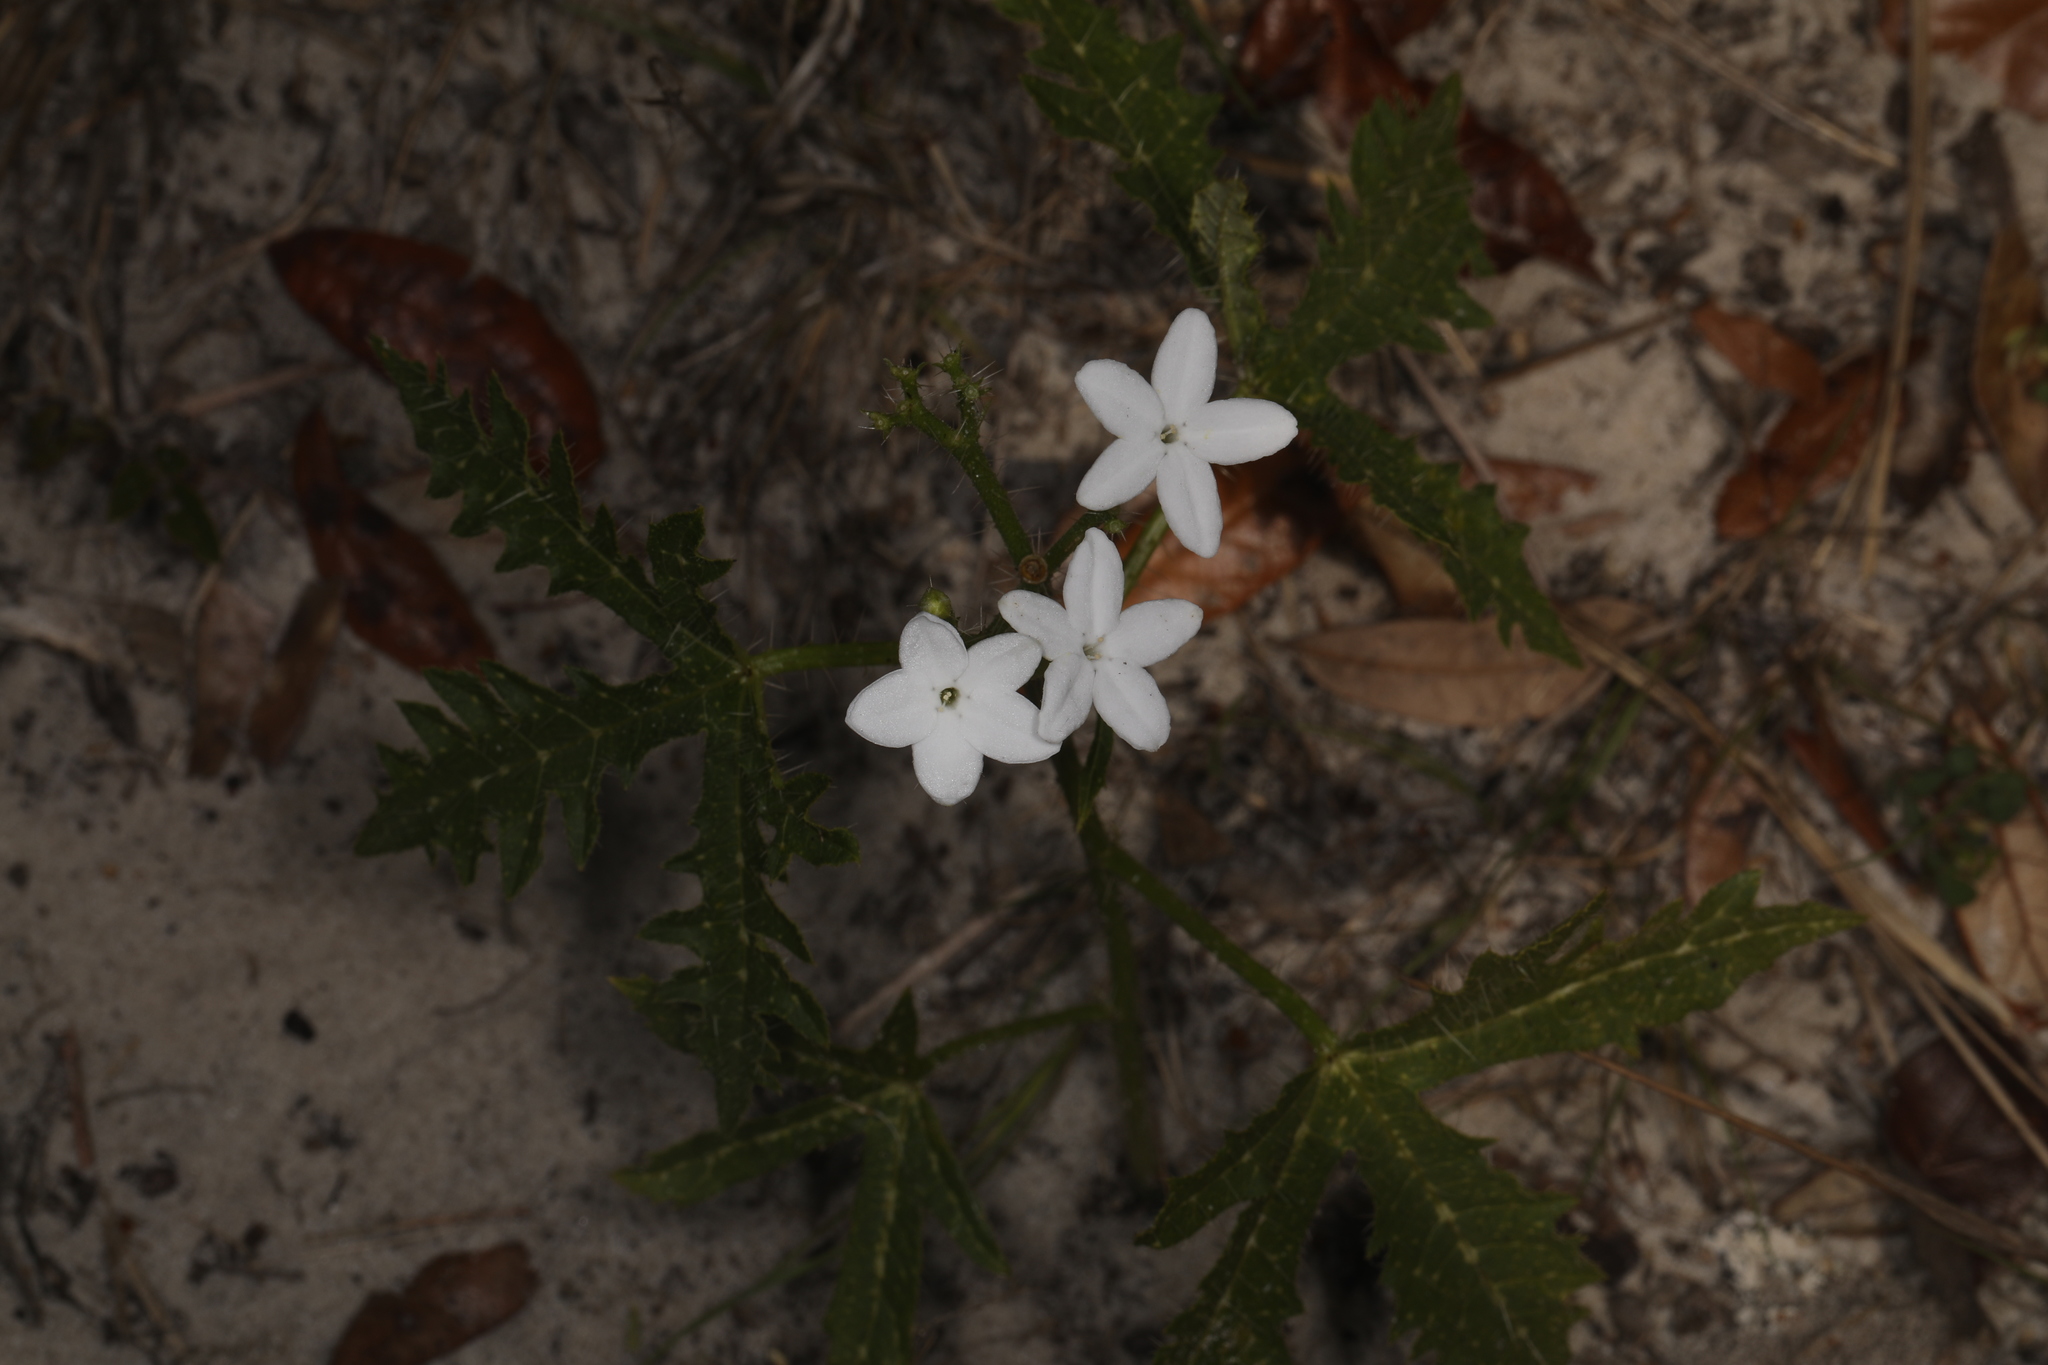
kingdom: Plantae
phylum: Tracheophyta
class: Magnoliopsida
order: Malpighiales
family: Euphorbiaceae
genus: Cnidoscolus
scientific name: Cnidoscolus stimulosus
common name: Bull-nettle
